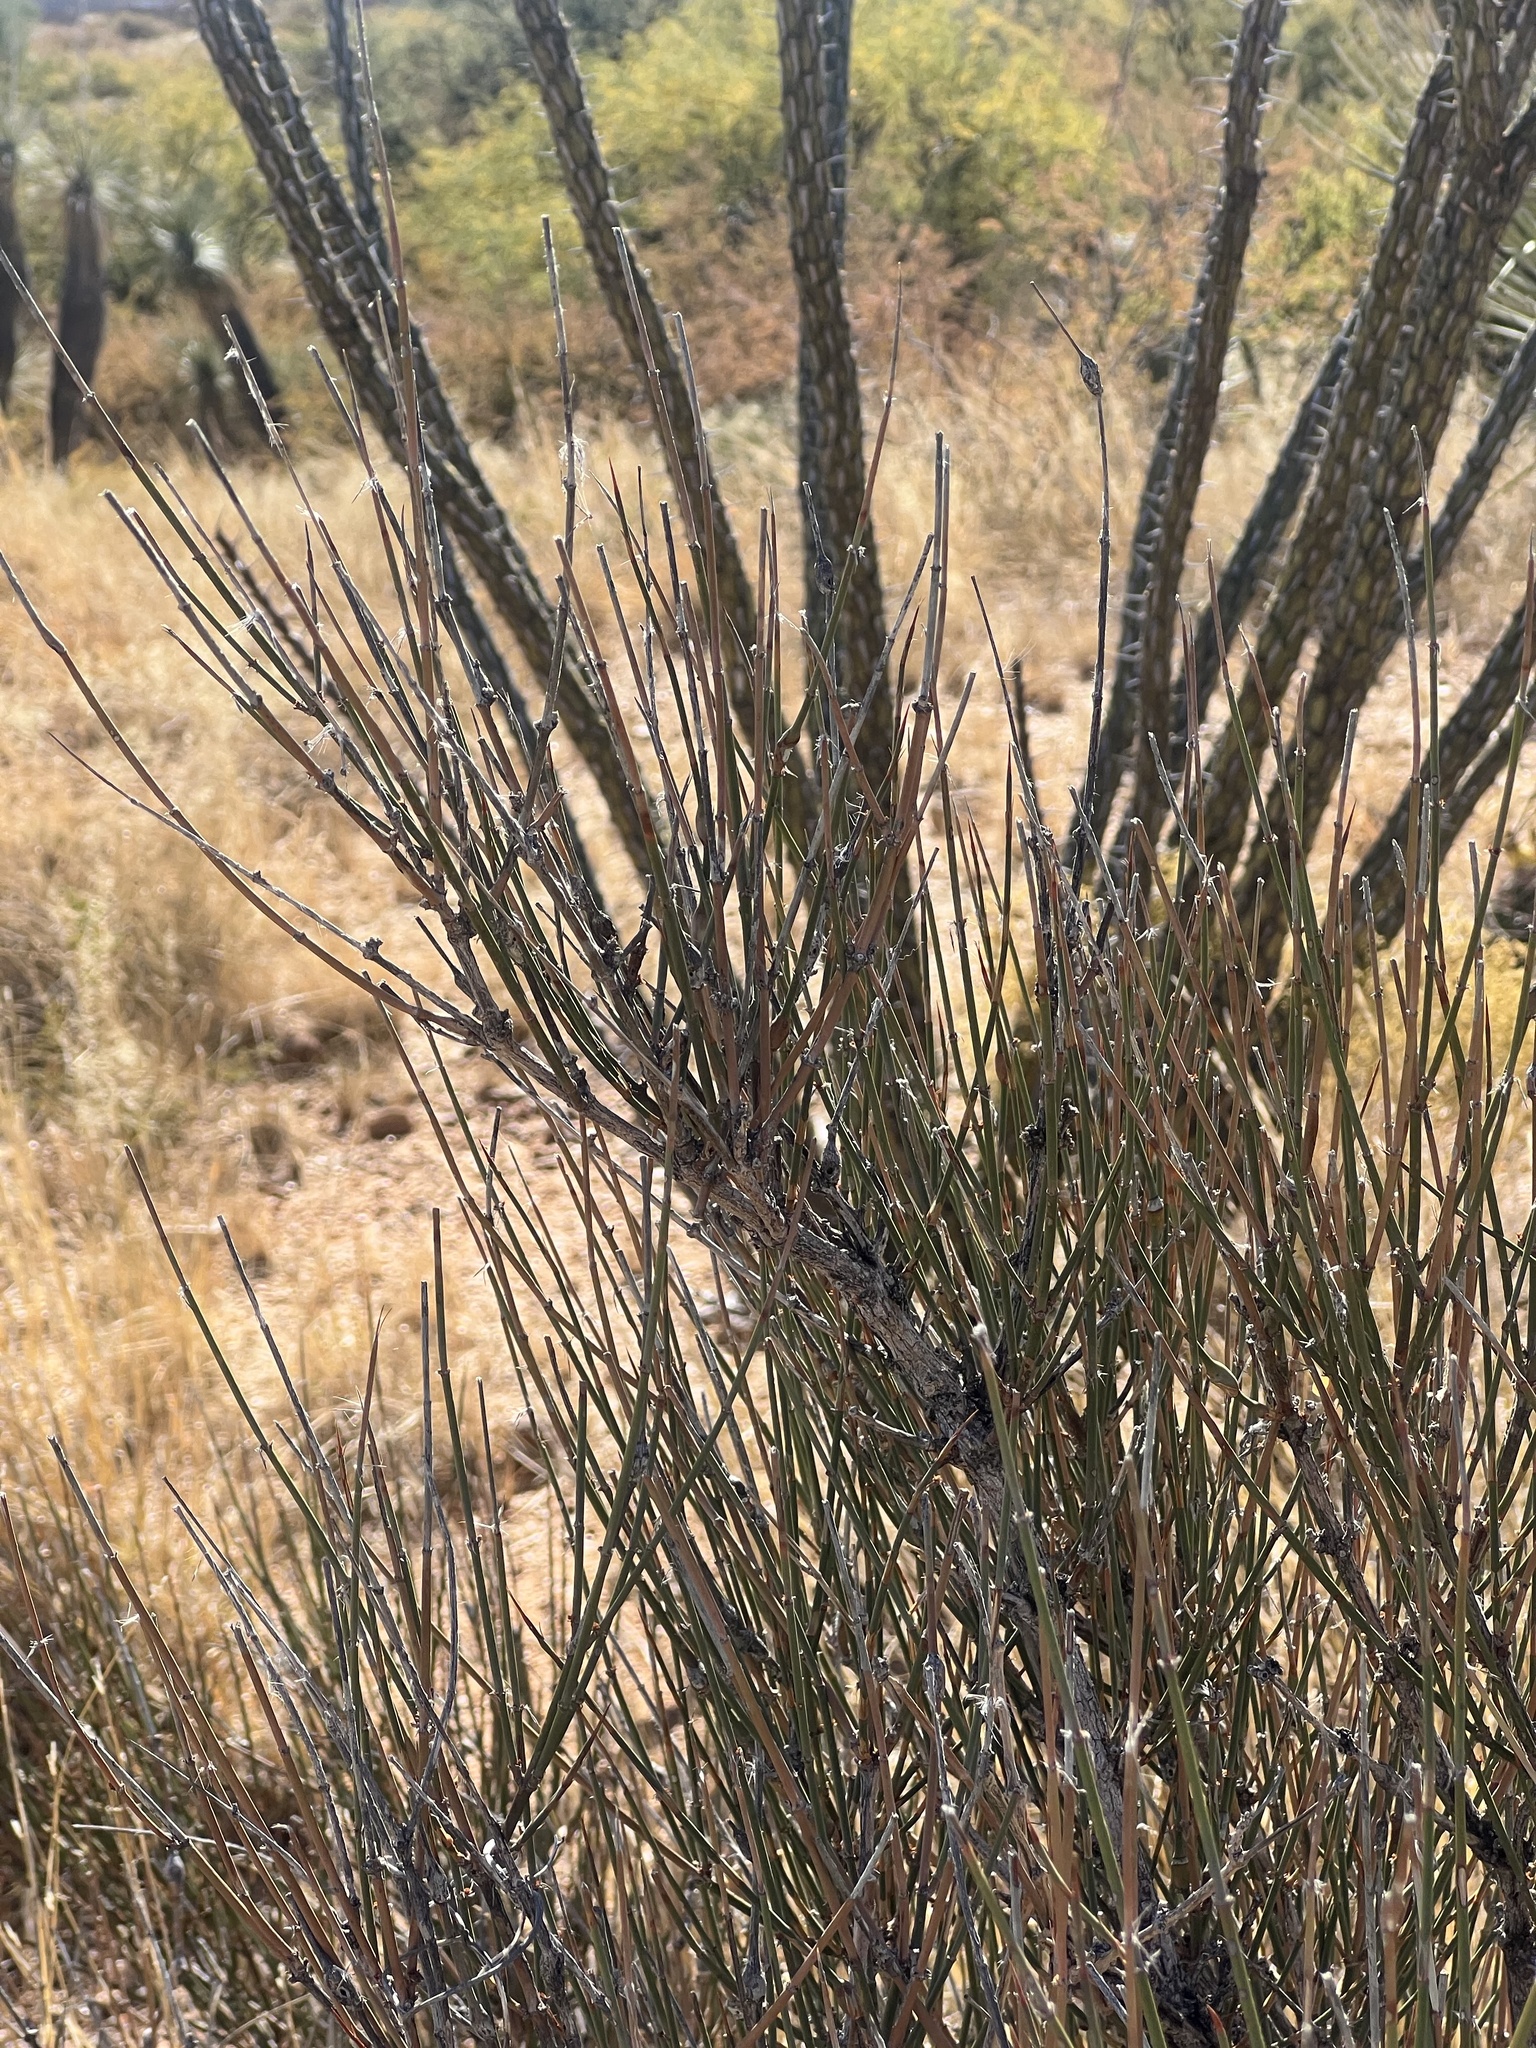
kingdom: Plantae
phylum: Tracheophyta
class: Gnetopsida
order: Ephedrales
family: Ephedraceae
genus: Ephedra
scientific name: Ephedra trifurca
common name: Mexican-tea
